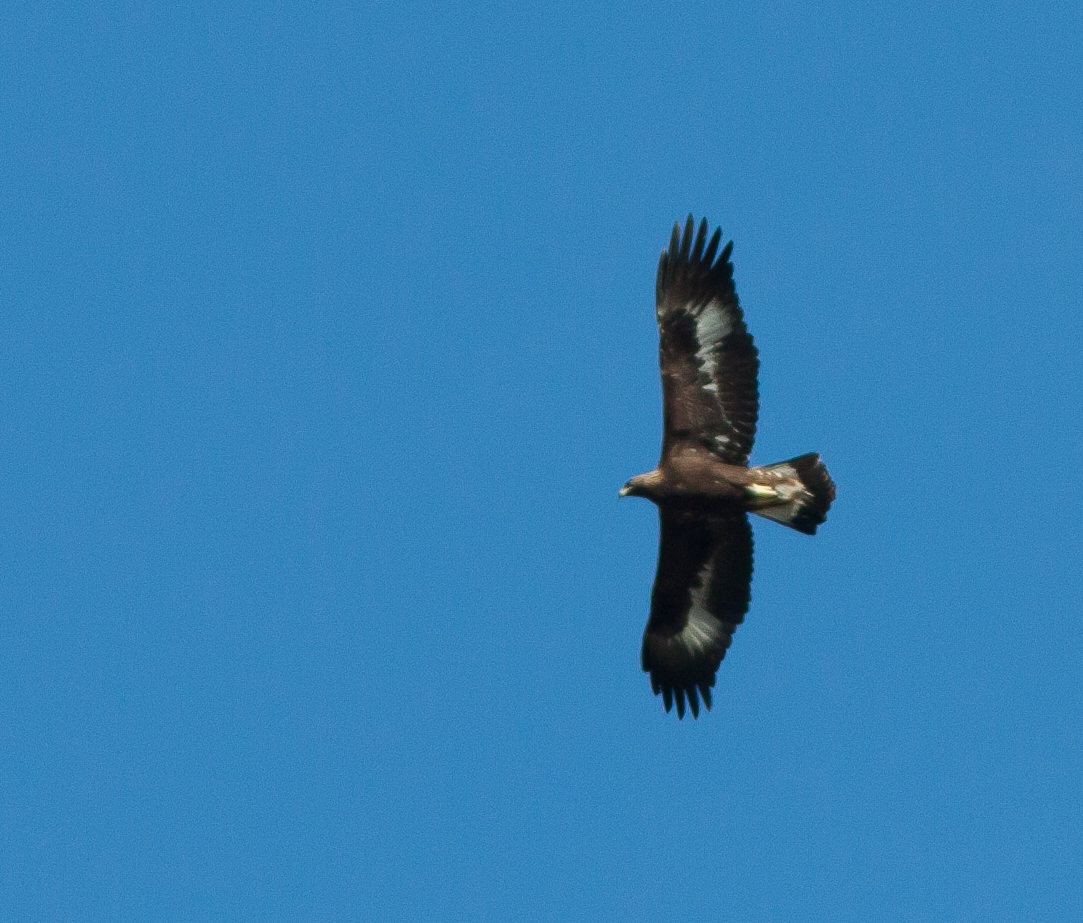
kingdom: Animalia
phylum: Chordata
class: Aves
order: Accipitriformes
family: Accipitridae
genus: Aquila
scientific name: Aquila chrysaetos
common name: Golden eagle
